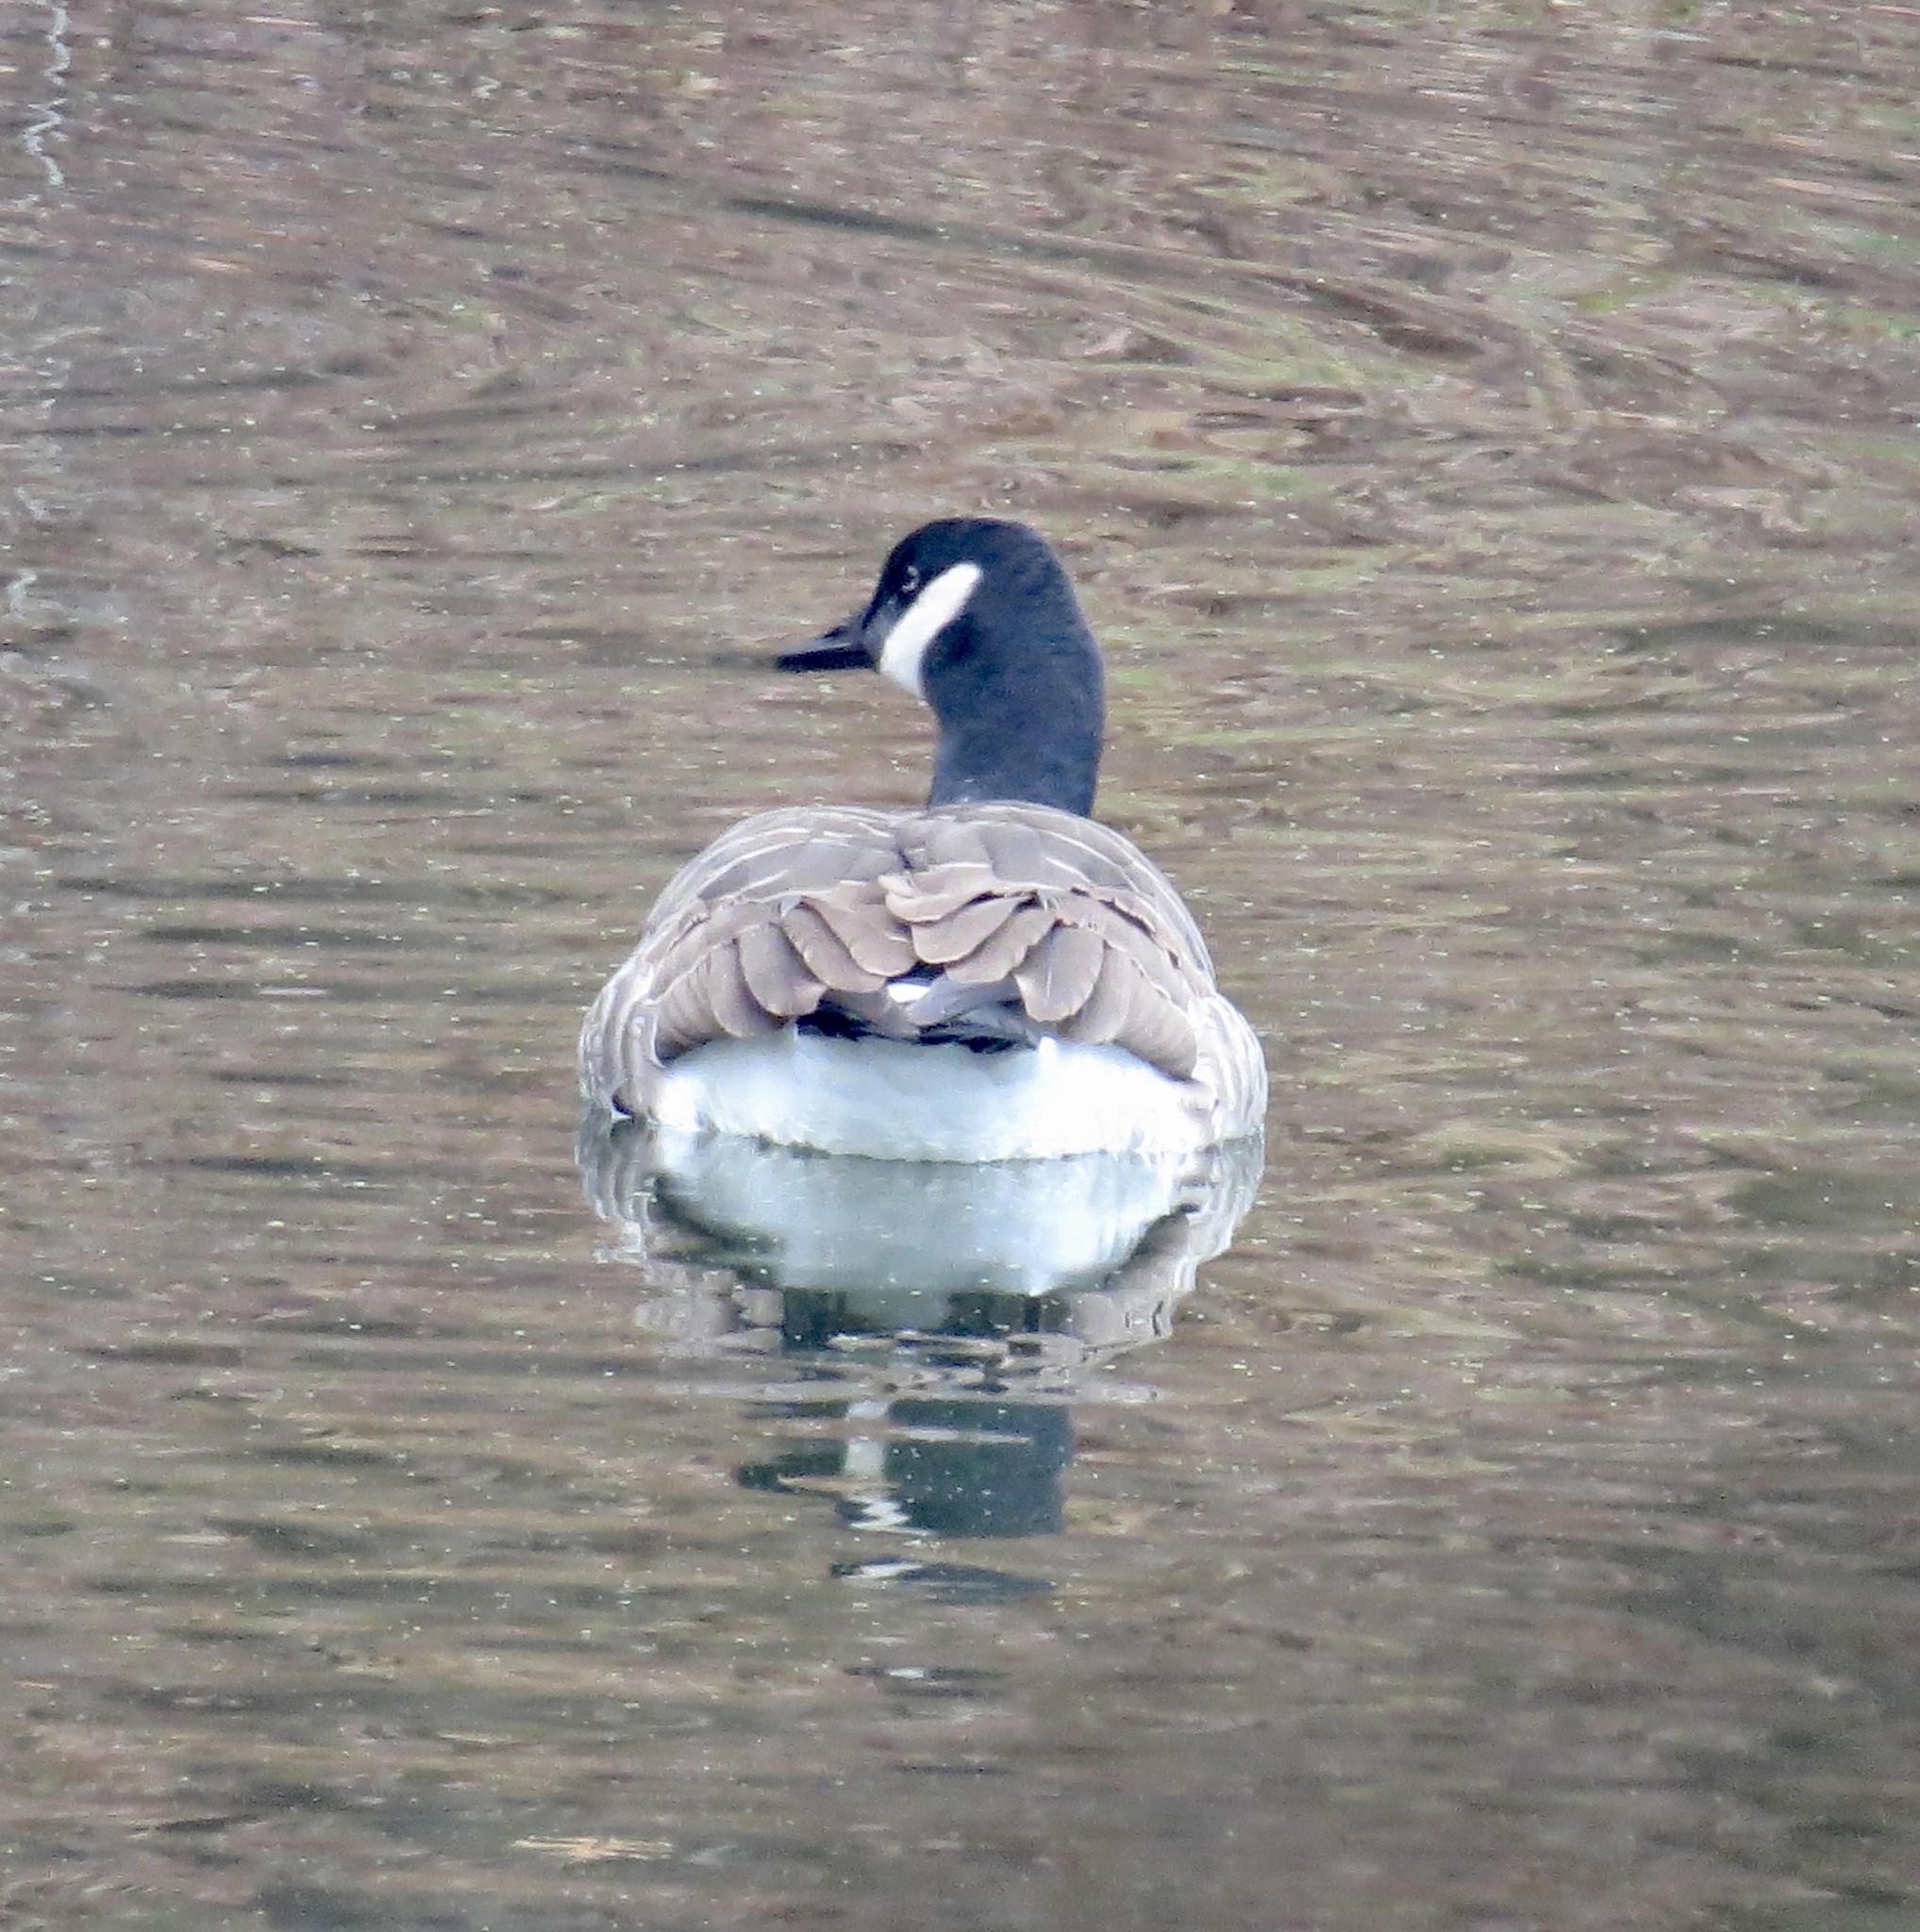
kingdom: Animalia
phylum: Chordata
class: Aves
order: Anseriformes
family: Anatidae
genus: Branta
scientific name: Branta canadensis
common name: Canada goose
